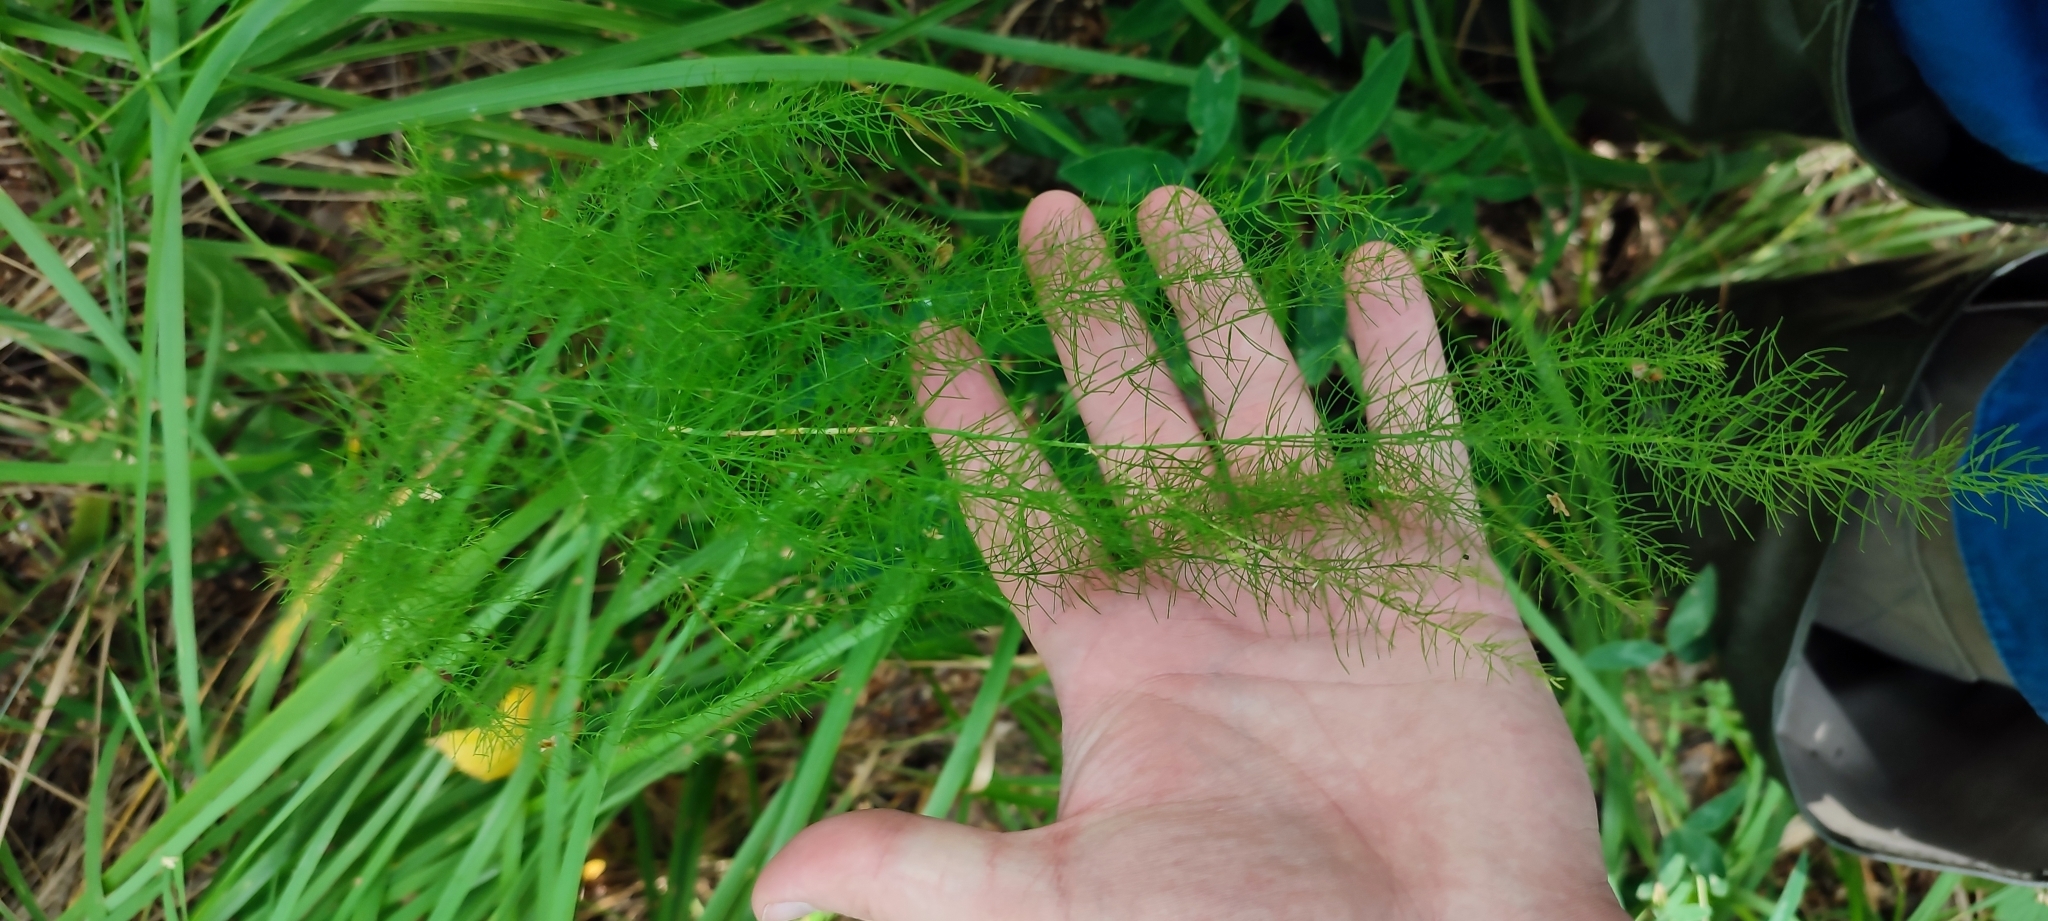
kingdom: Plantae
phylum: Tracheophyta
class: Liliopsida
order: Asparagales
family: Asparagaceae
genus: Asparagus
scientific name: Asparagus officinalis
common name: Garden asparagus
